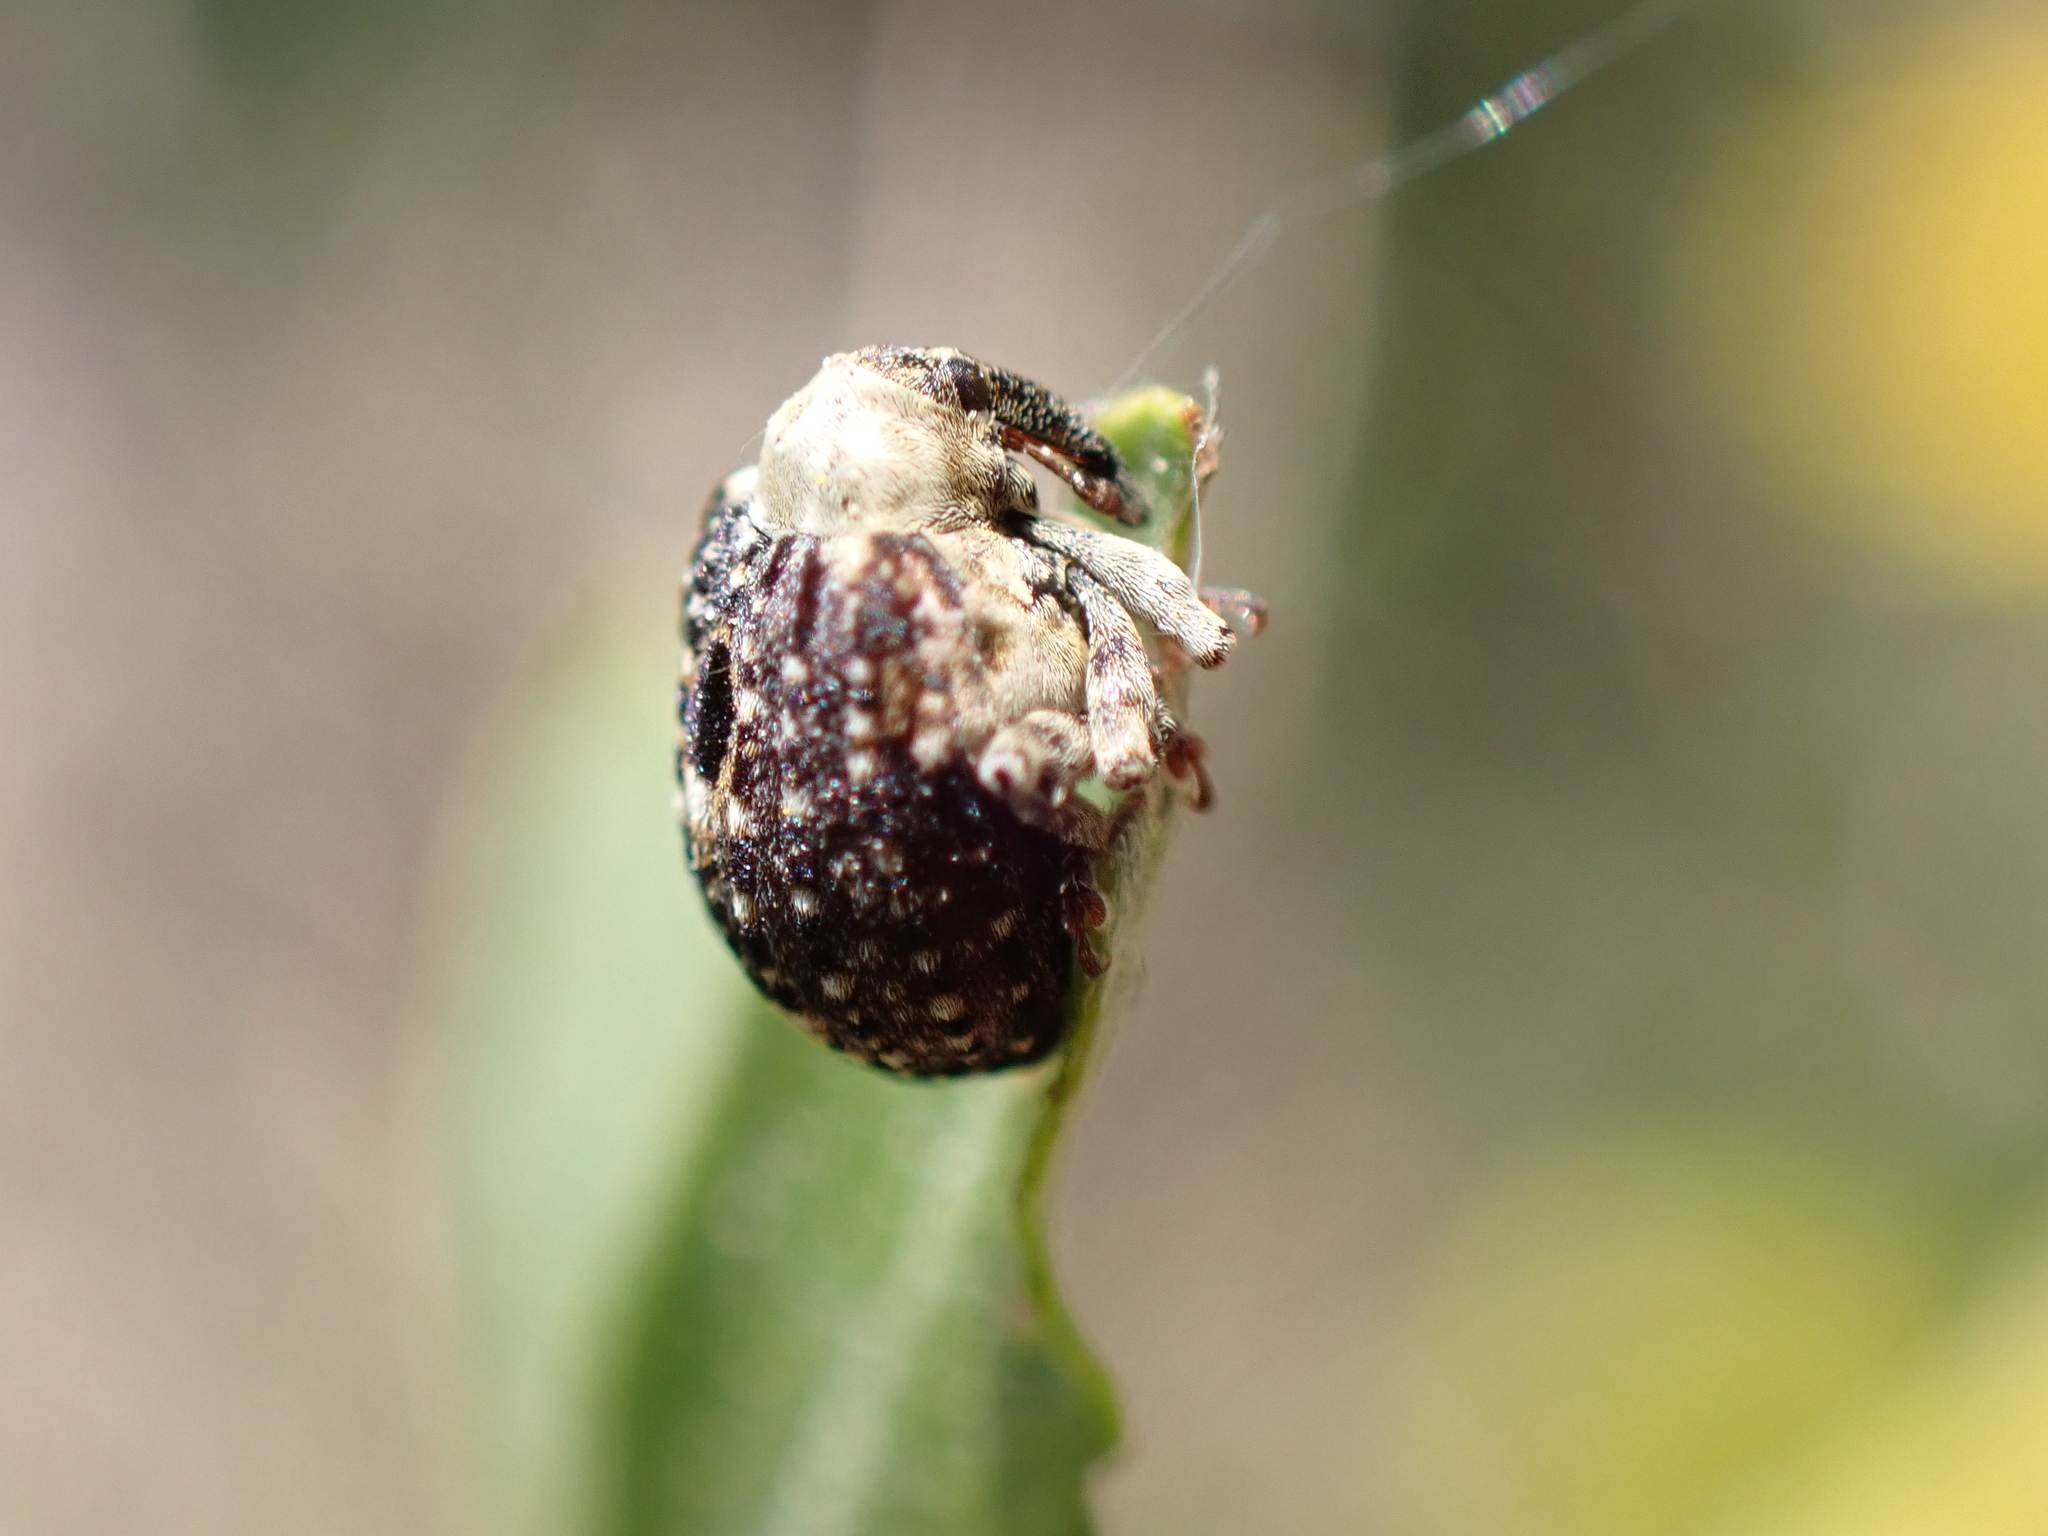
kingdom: Animalia
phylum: Arthropoda
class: Insecta
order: Coleoptera
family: Curculionidae
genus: Cionus
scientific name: Cionus scrophulariae
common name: Common figwort weevil
